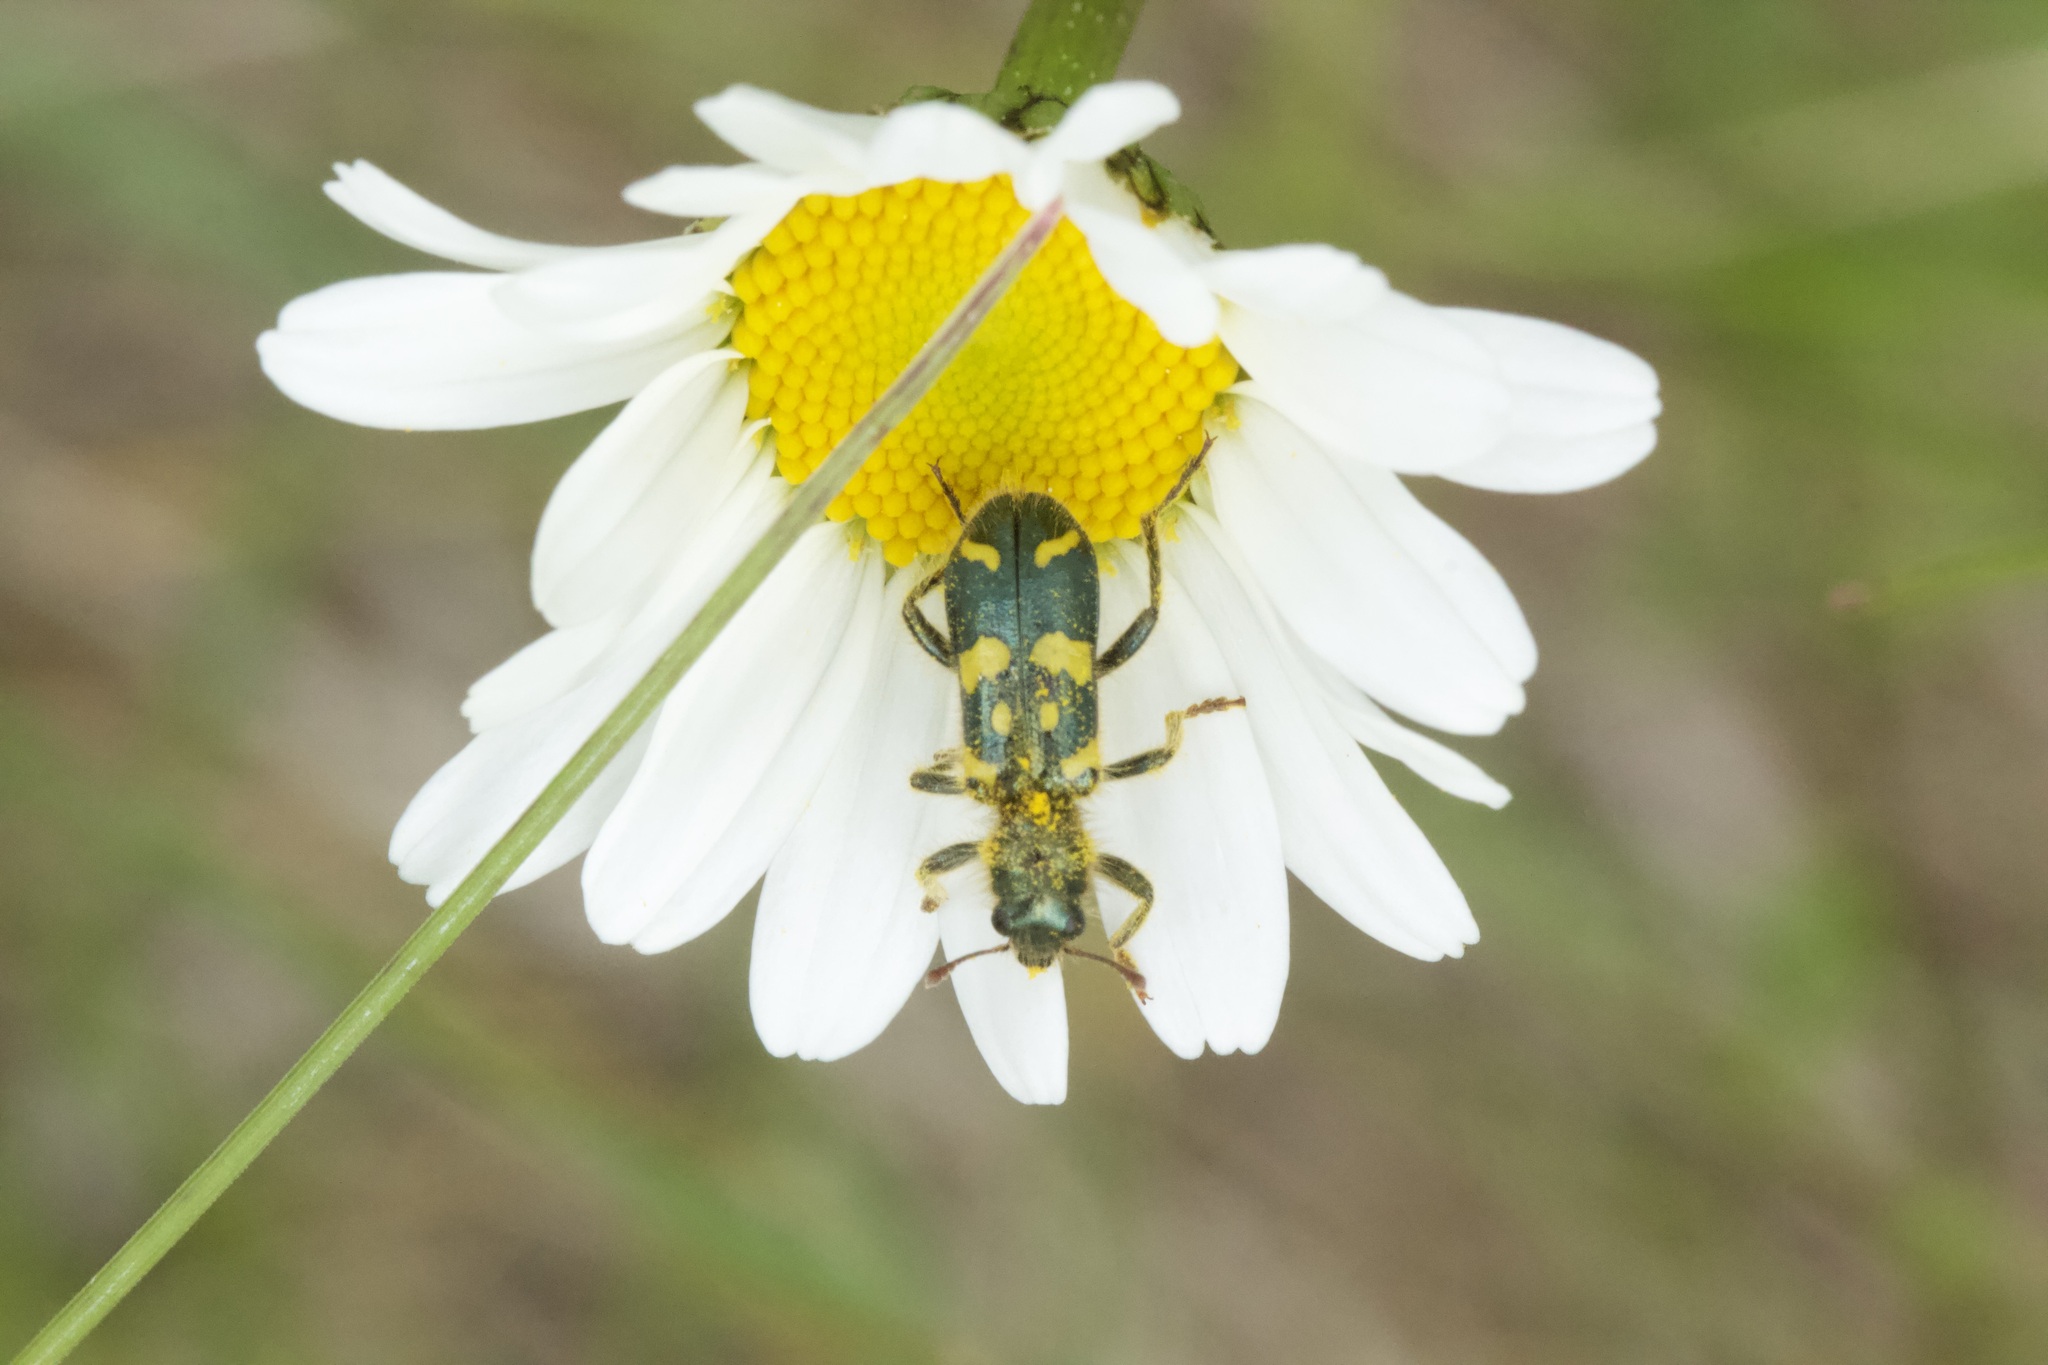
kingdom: Animalia
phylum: Arthropoda
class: Insecta
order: Coleoptera
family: Cleridae
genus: Trichodes
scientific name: Trichodes ornatus
